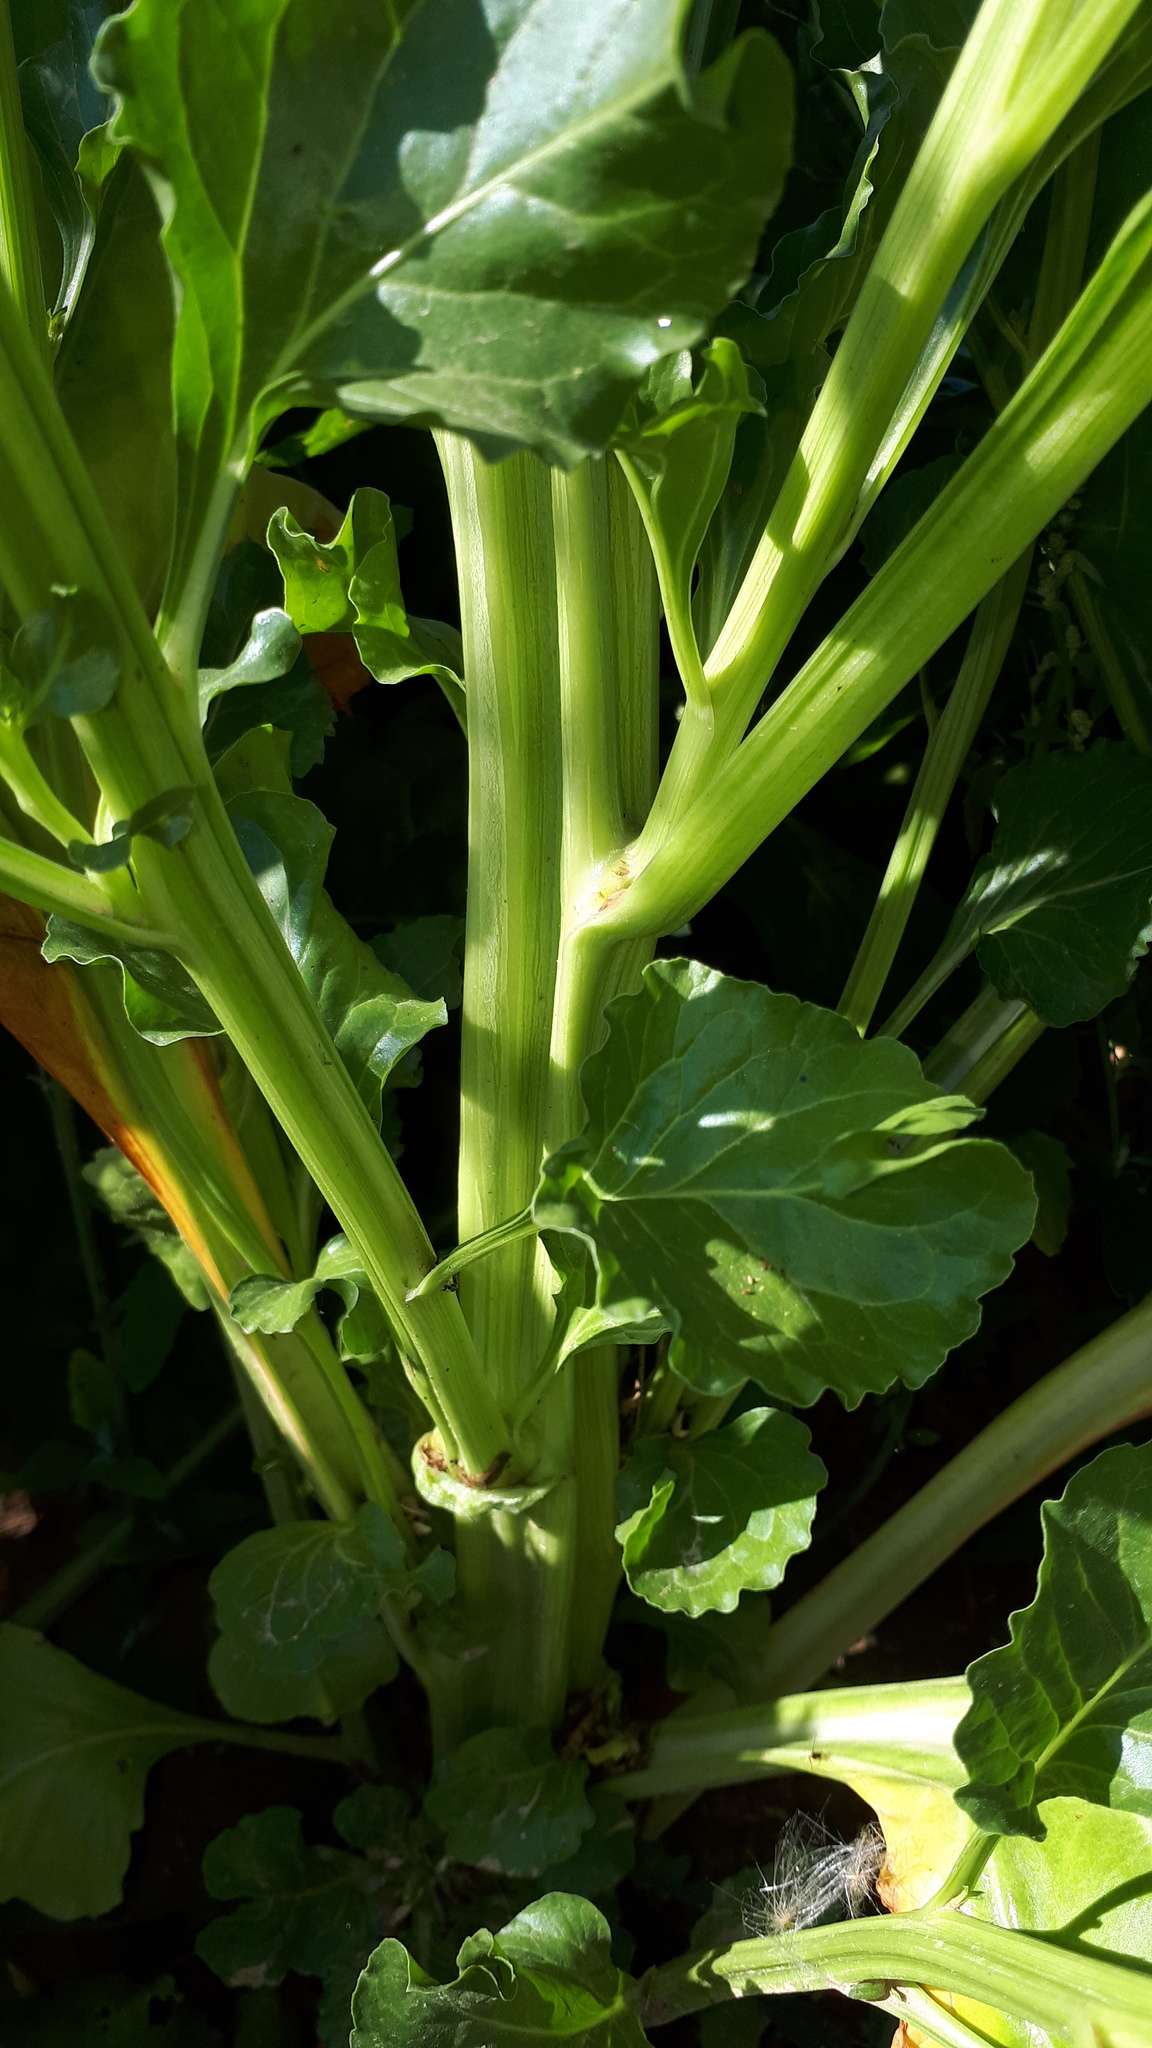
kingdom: Plantae
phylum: Tracheophyta
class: Magnoliopsida
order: Caryophyllales
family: Amaranthaceae
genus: Beta
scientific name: Beta vulgaris
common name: Beet
